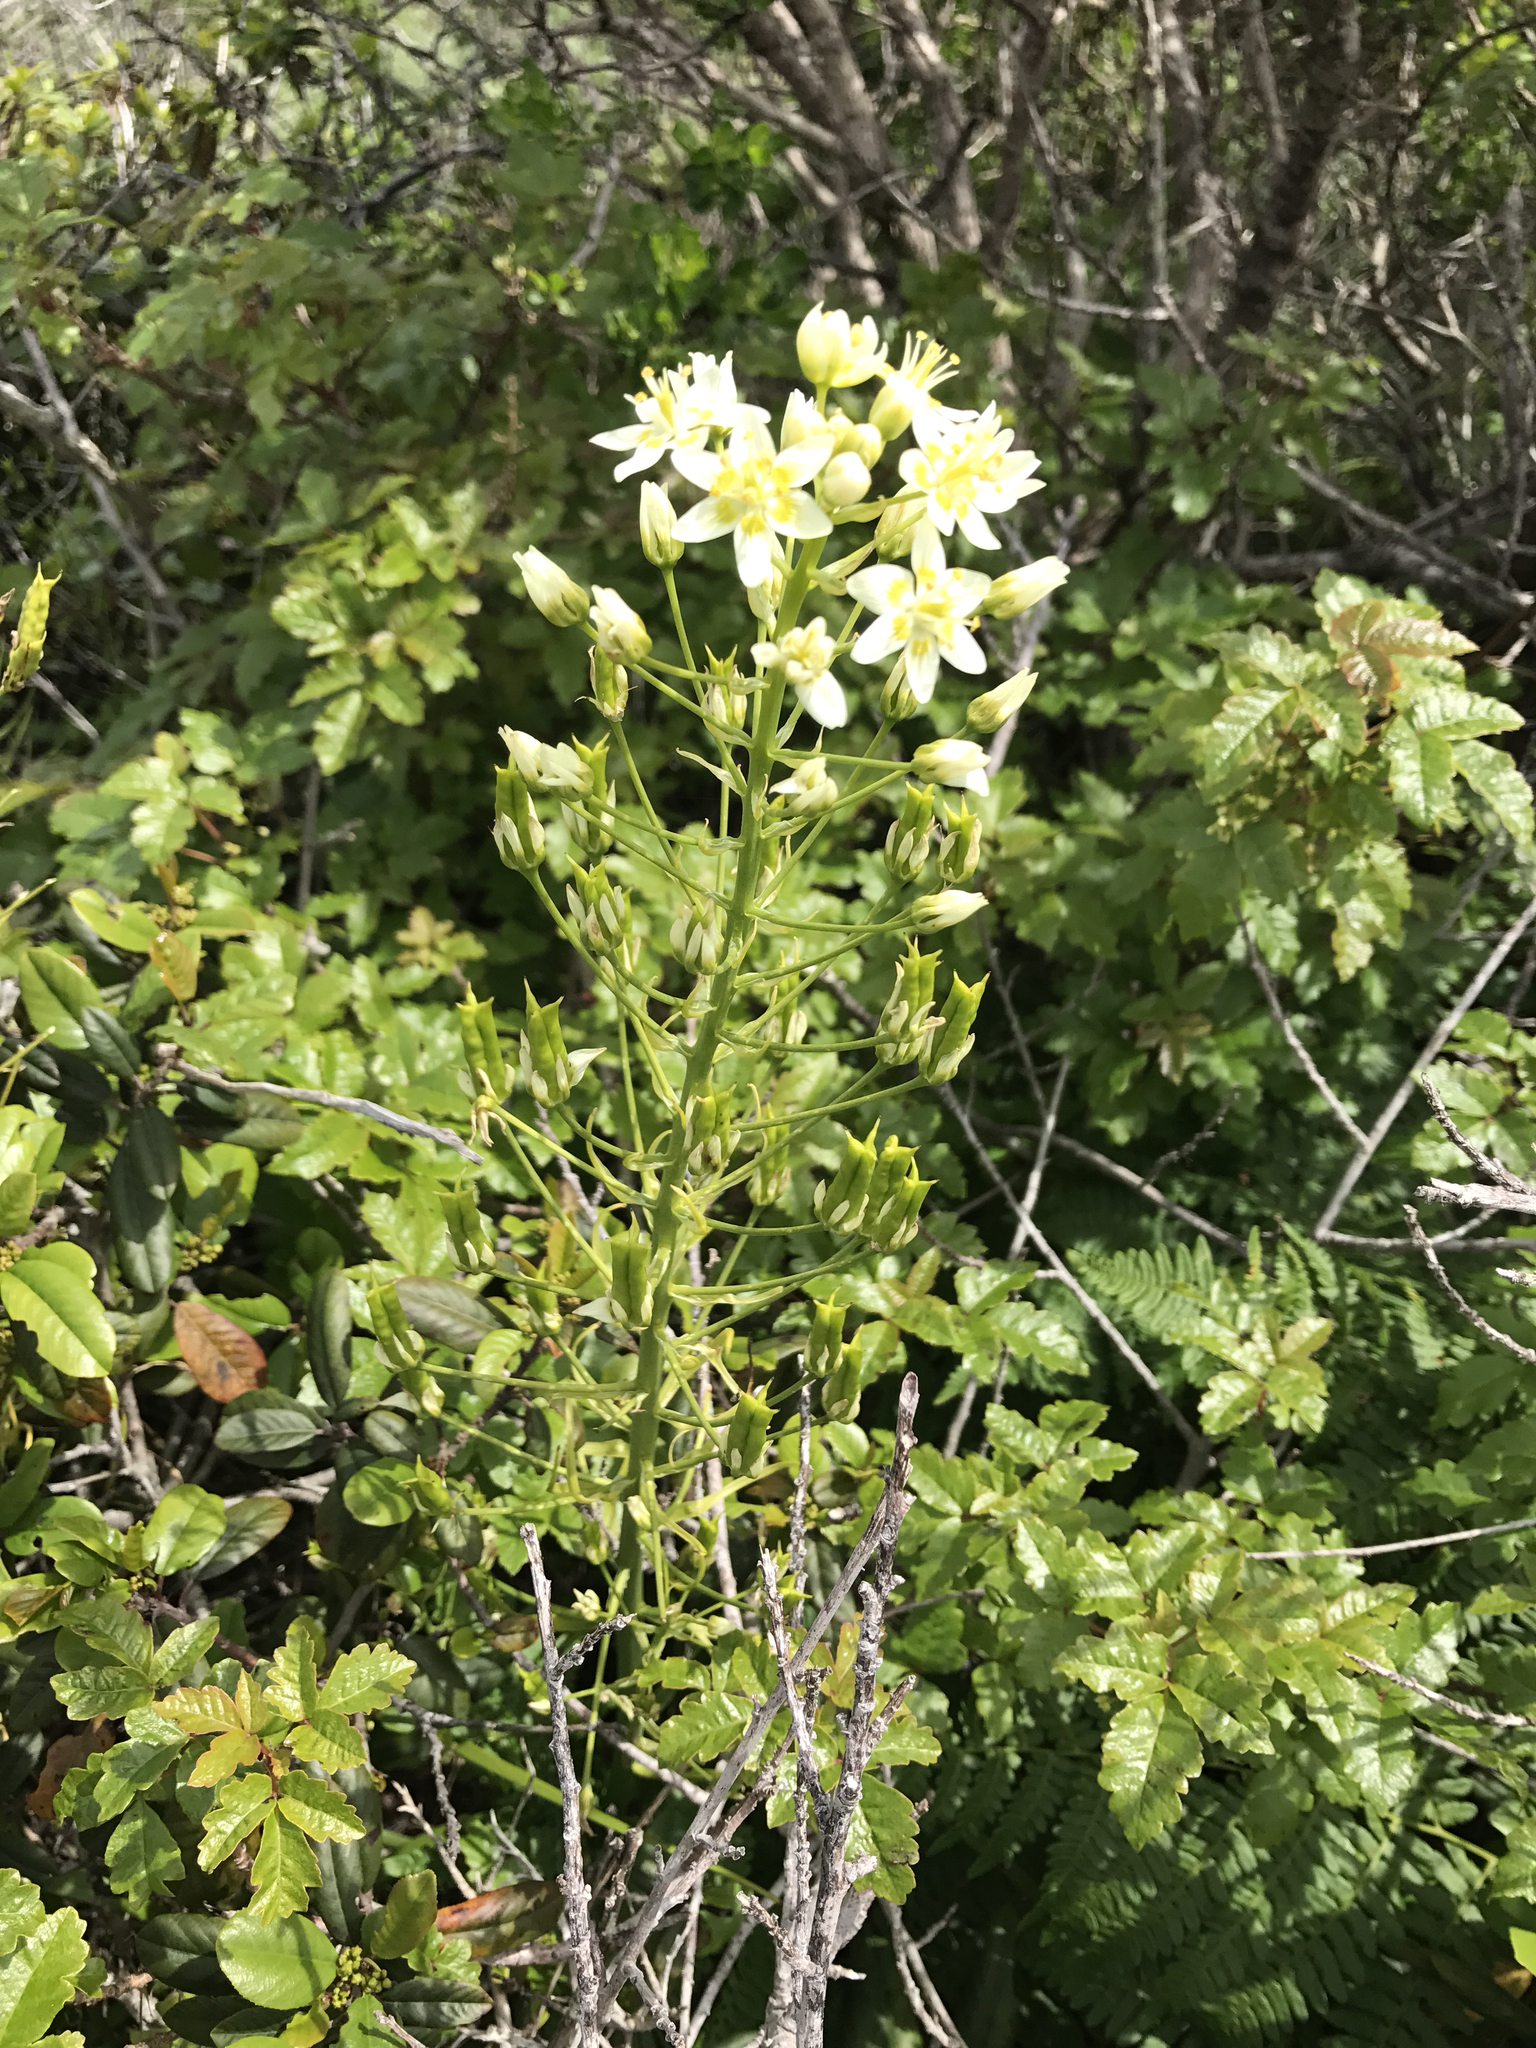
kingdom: Plantae
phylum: Tracheophyta
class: Liliopsida
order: Liliales
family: Melanthiaceae
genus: Toxicoscordion
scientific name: Toxicoscordion fremontii
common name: Fremont's death camas
